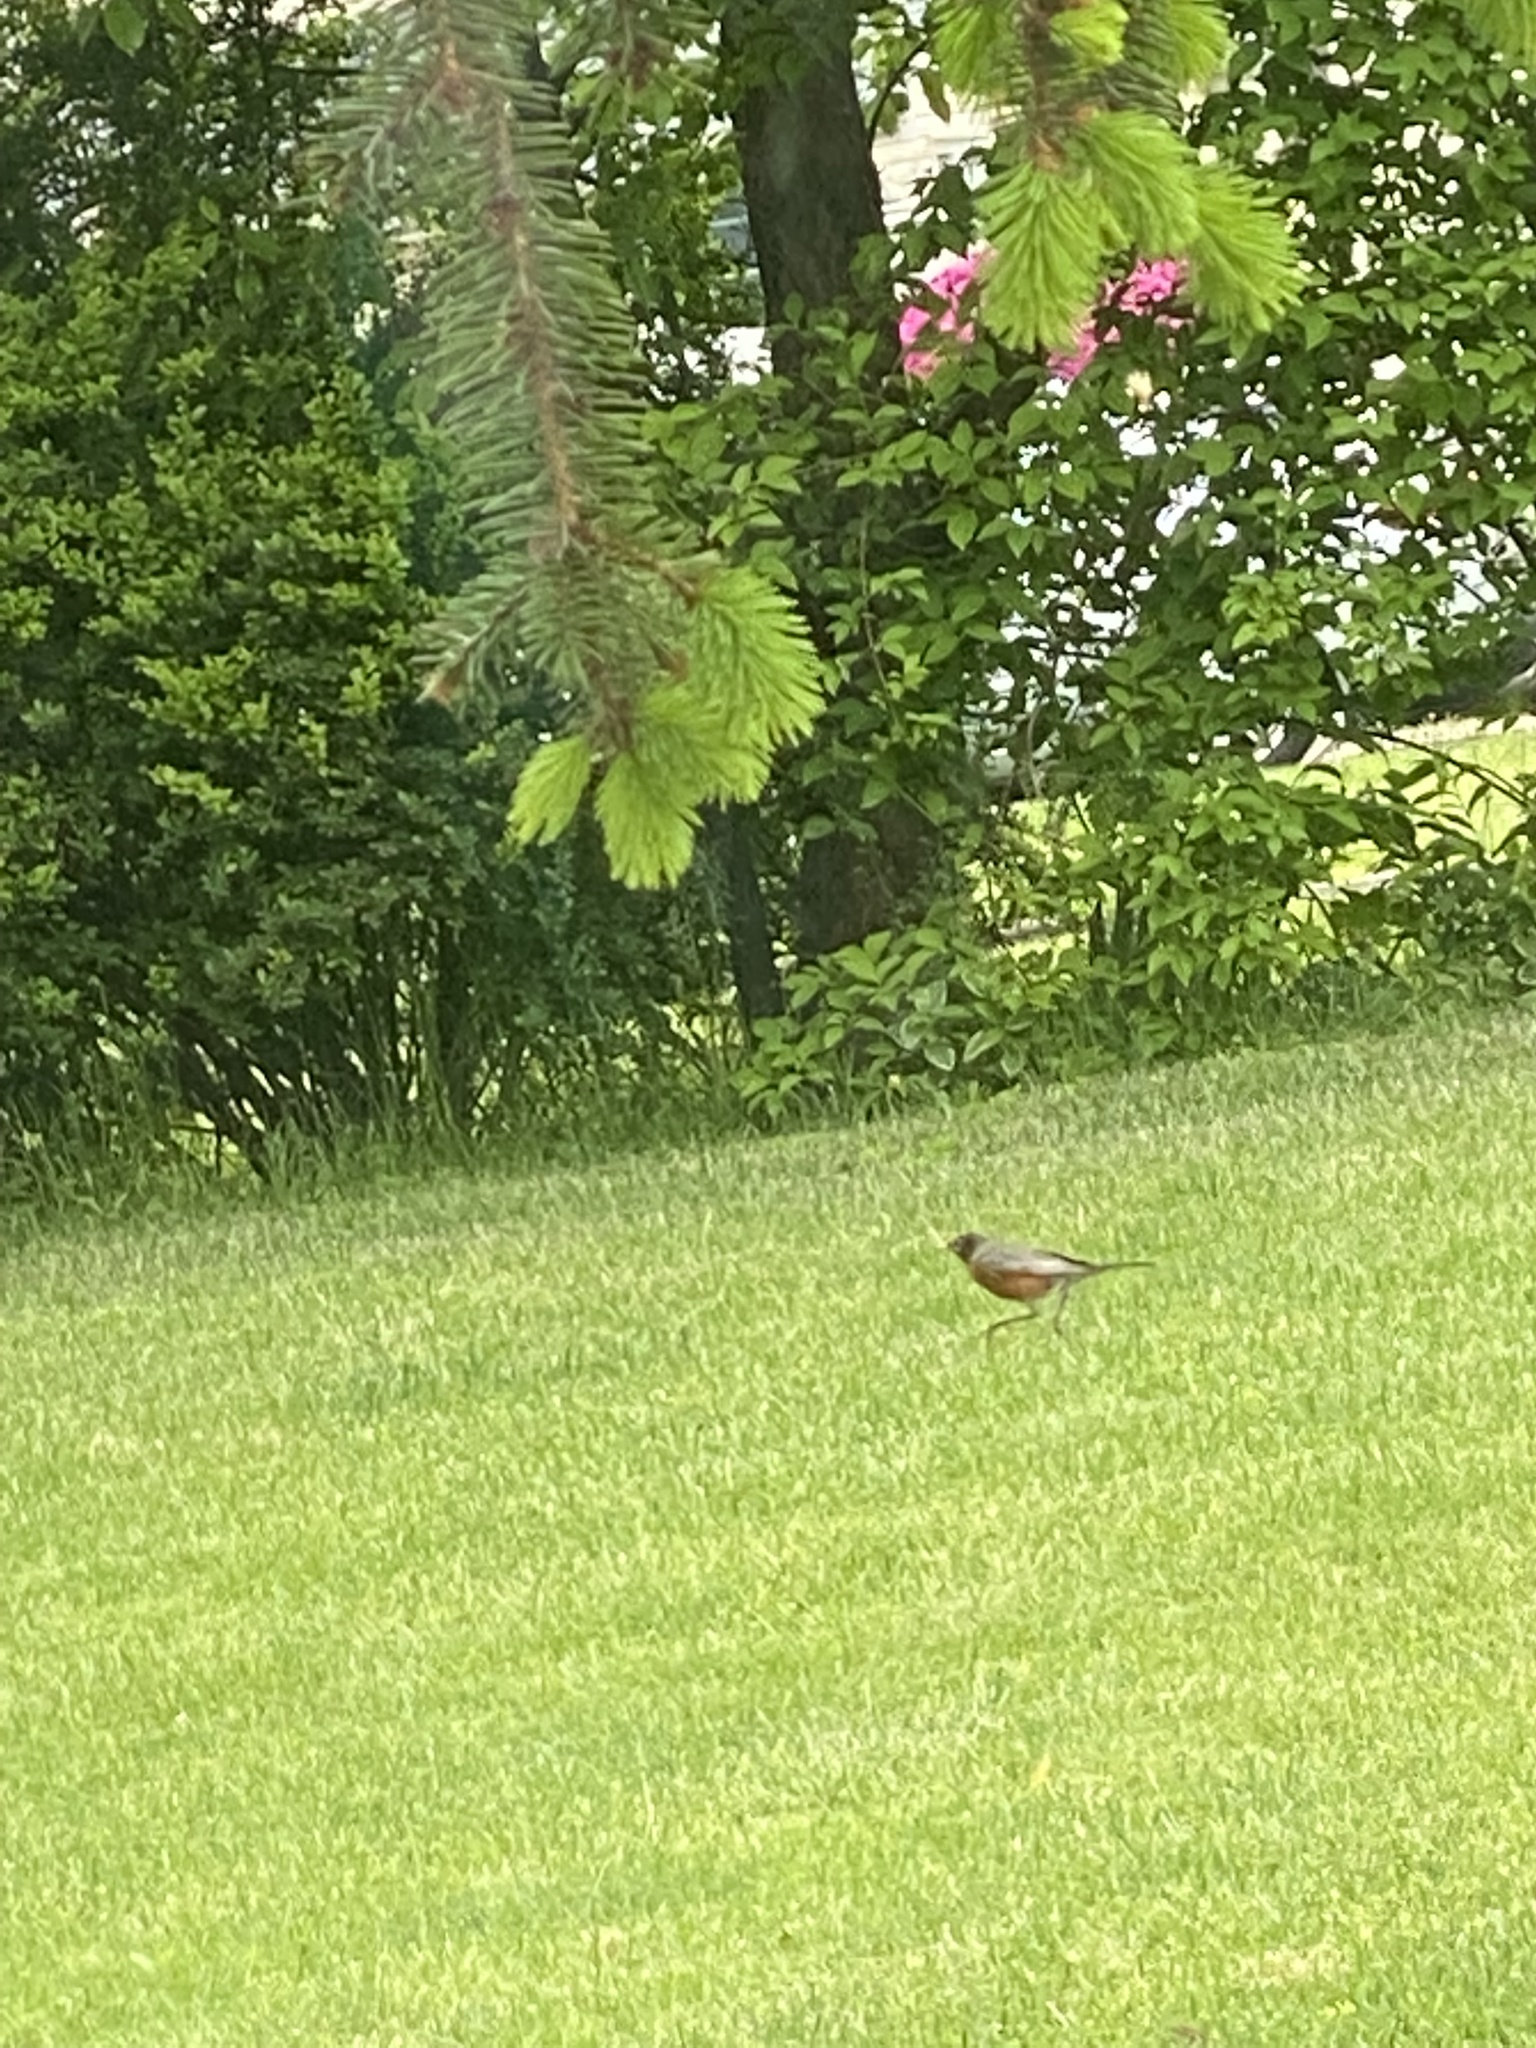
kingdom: Animalia
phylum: Chordata
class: Aves
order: Passeriformes
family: Turdidae
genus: Turdus
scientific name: Turdus migratorius
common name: American robin
